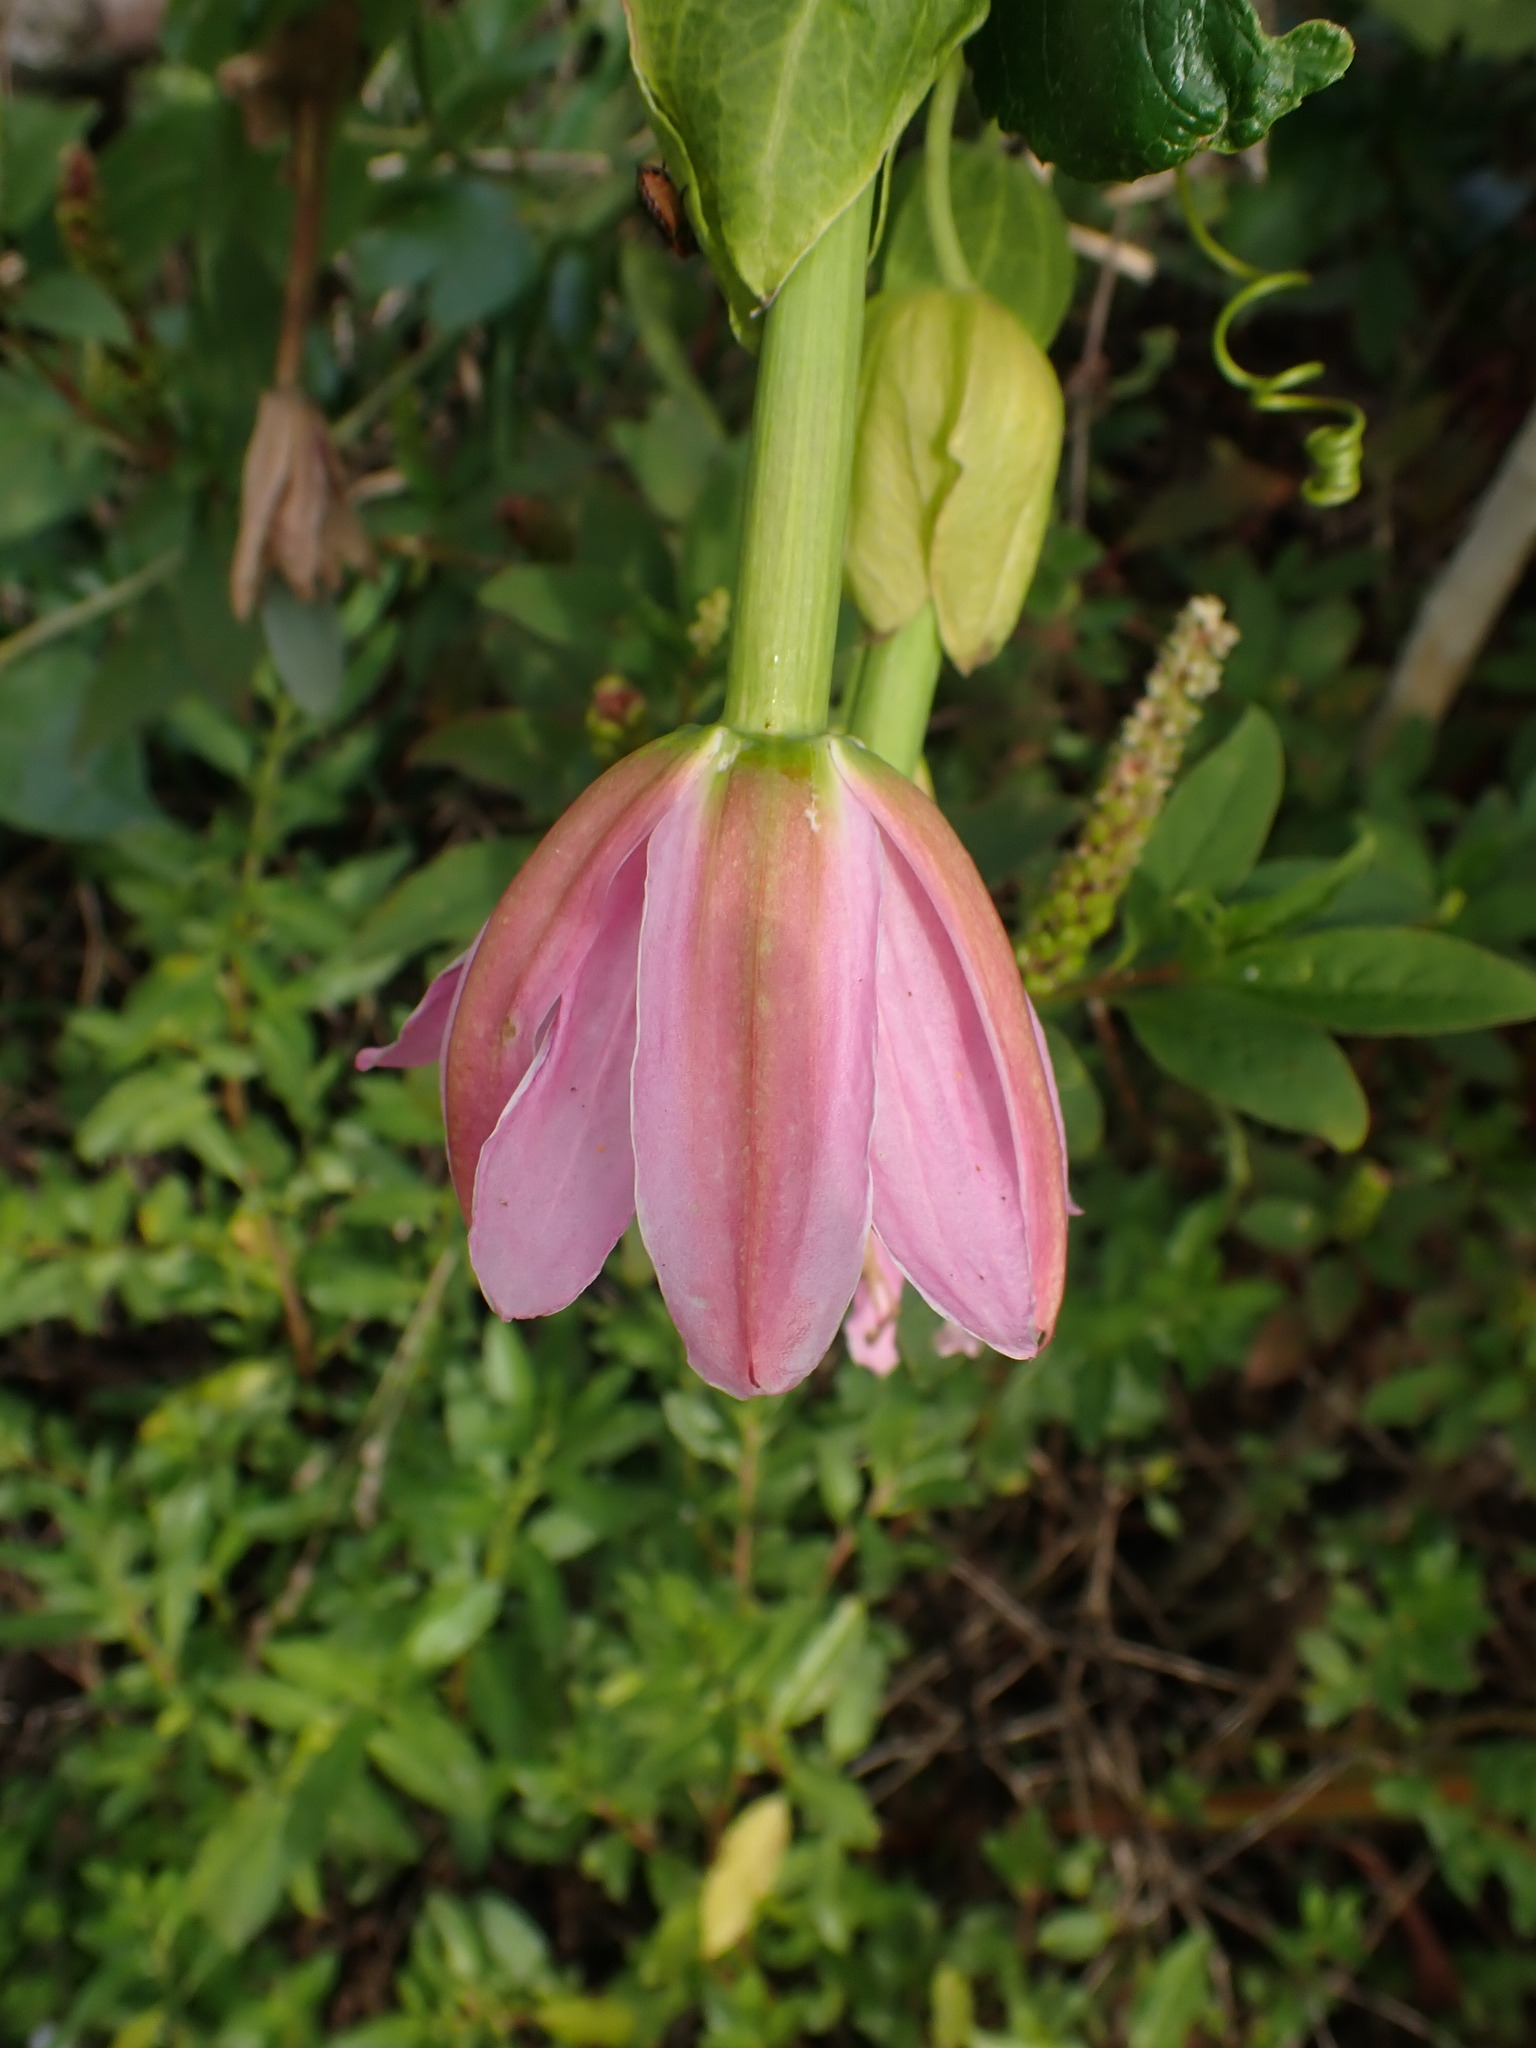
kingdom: Plantae
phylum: Tracheophyta
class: Magnoliopsida
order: Malpighiales
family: Passifloraceae
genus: Passiflora
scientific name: Passiflora tarminiana
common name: Banana poka
